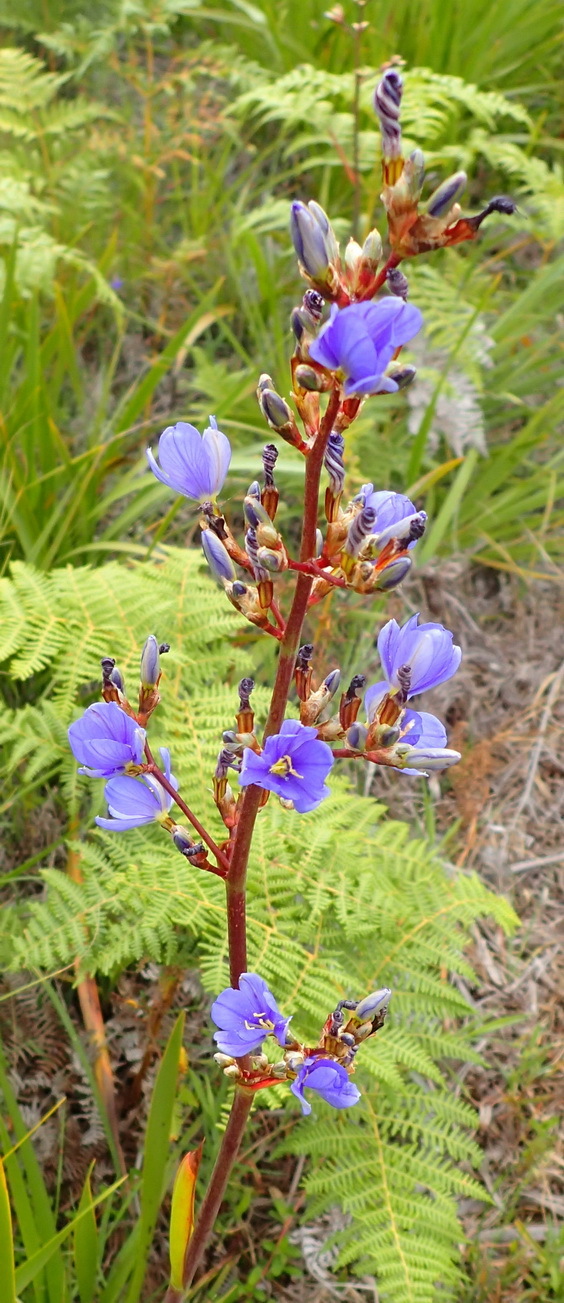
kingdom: Plantae
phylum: Tracheophyta
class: Liliopsida
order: Asparagales
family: Iridaceae
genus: Aristea
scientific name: Aristea bakeri
